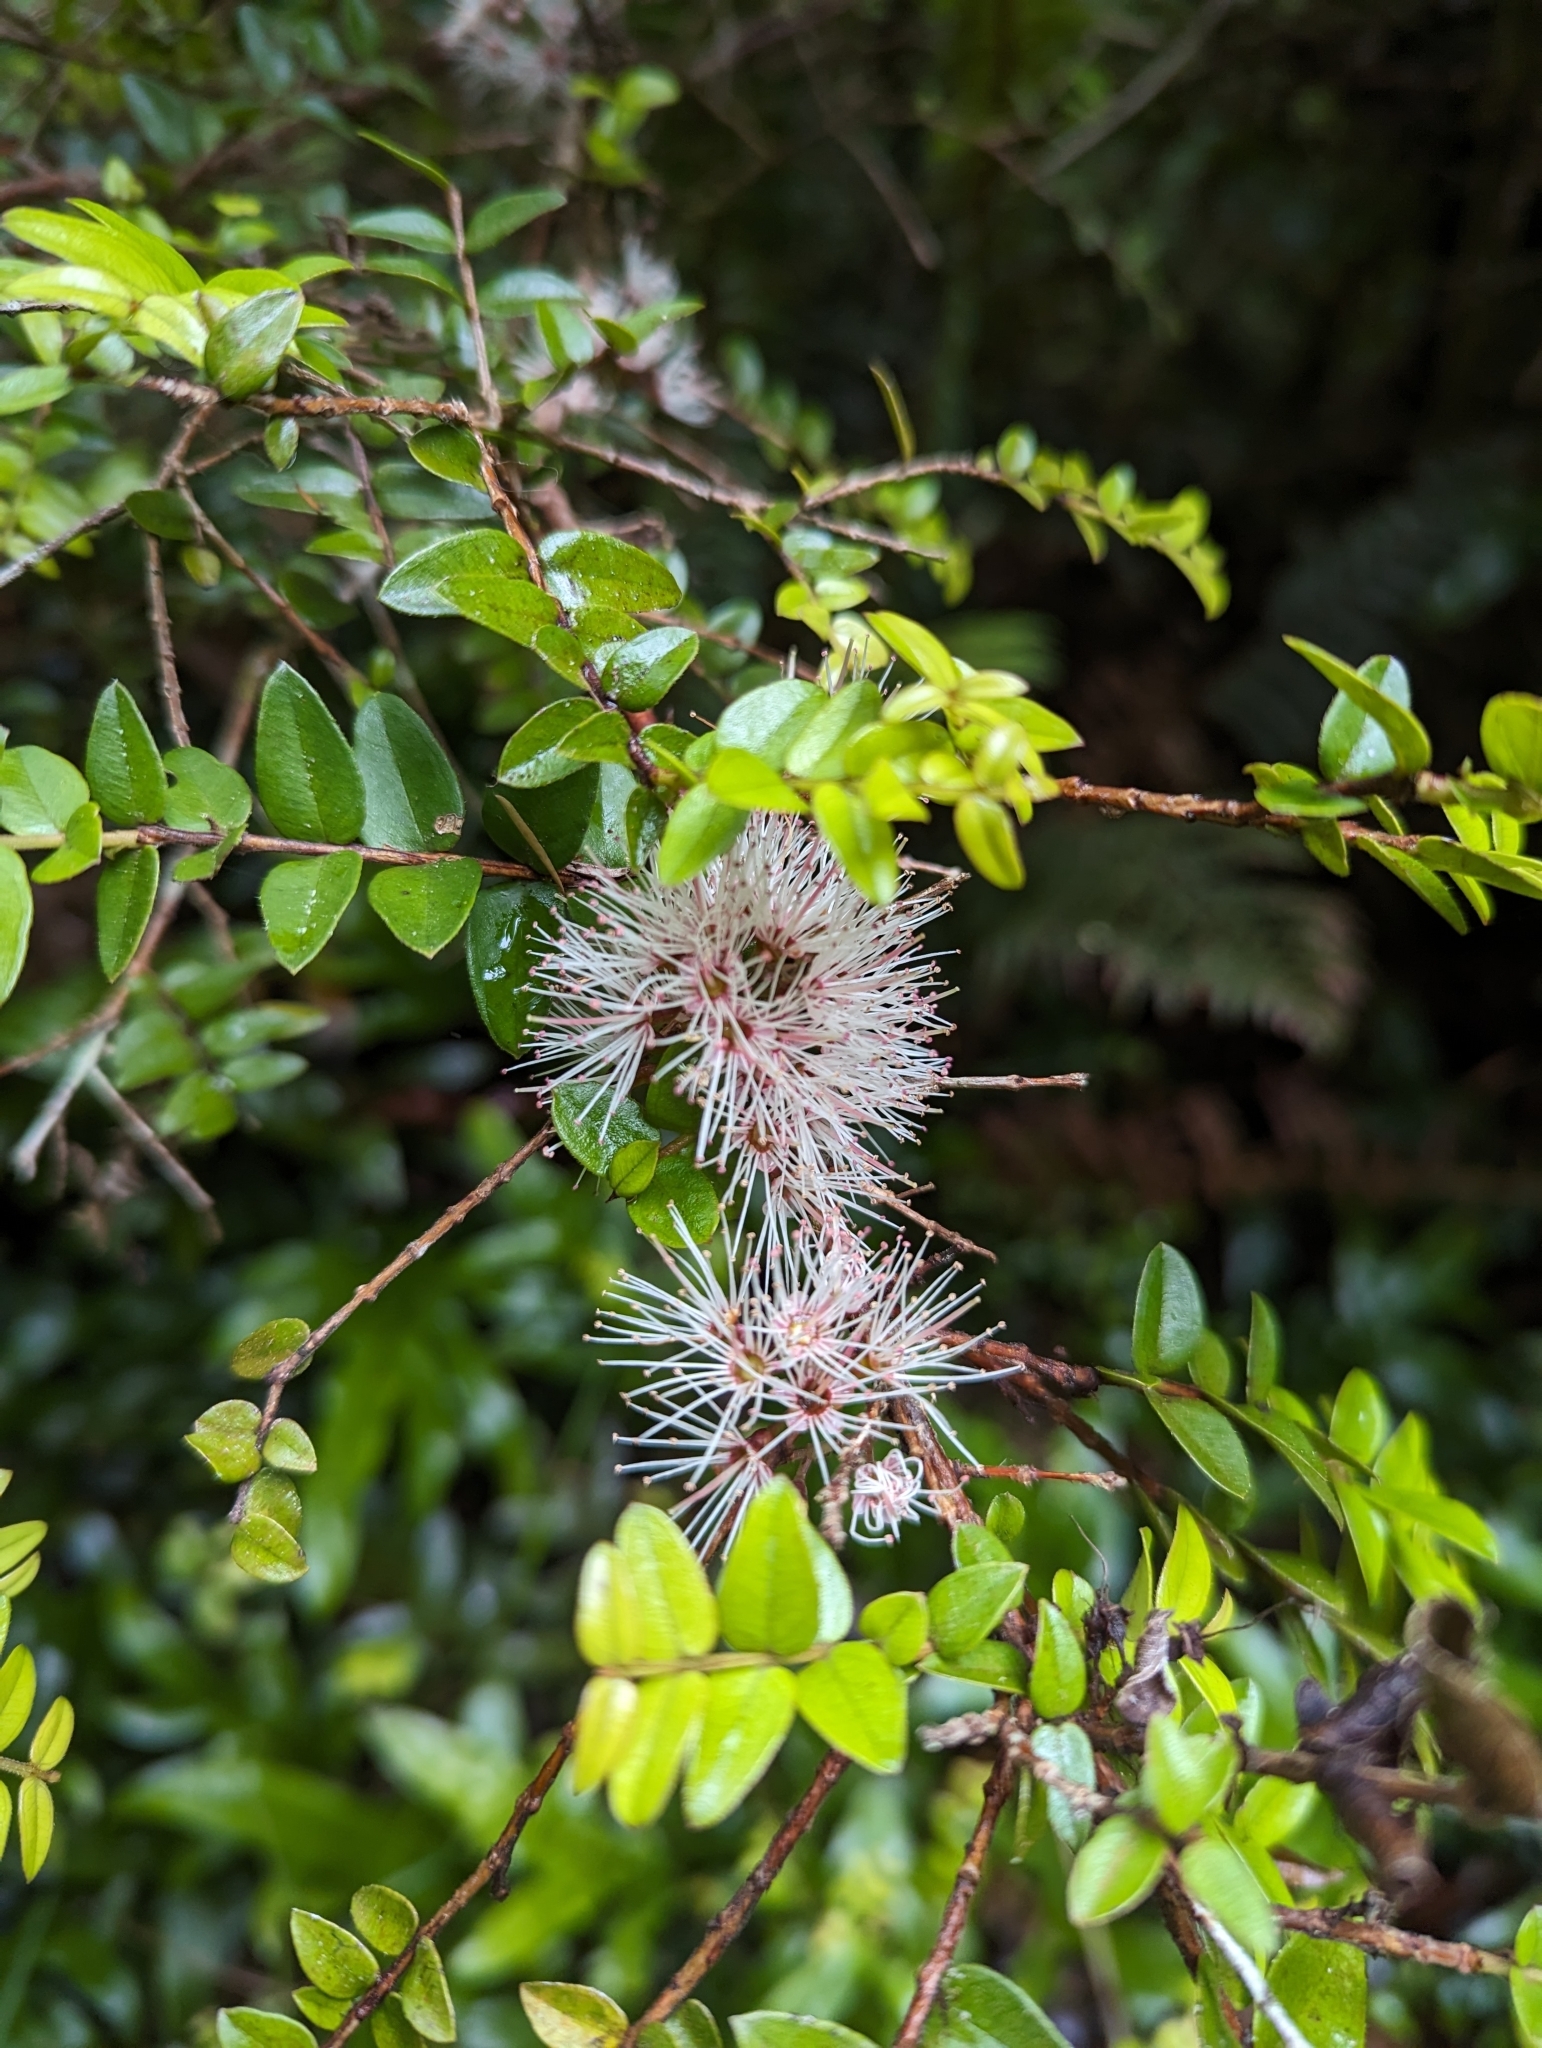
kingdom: Plantae
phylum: Tracheophyta
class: Magnoliopsida
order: Myrtales
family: Myrtaceae
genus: Metrosideros
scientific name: Metrosideros diffusa
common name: Small ratavine
